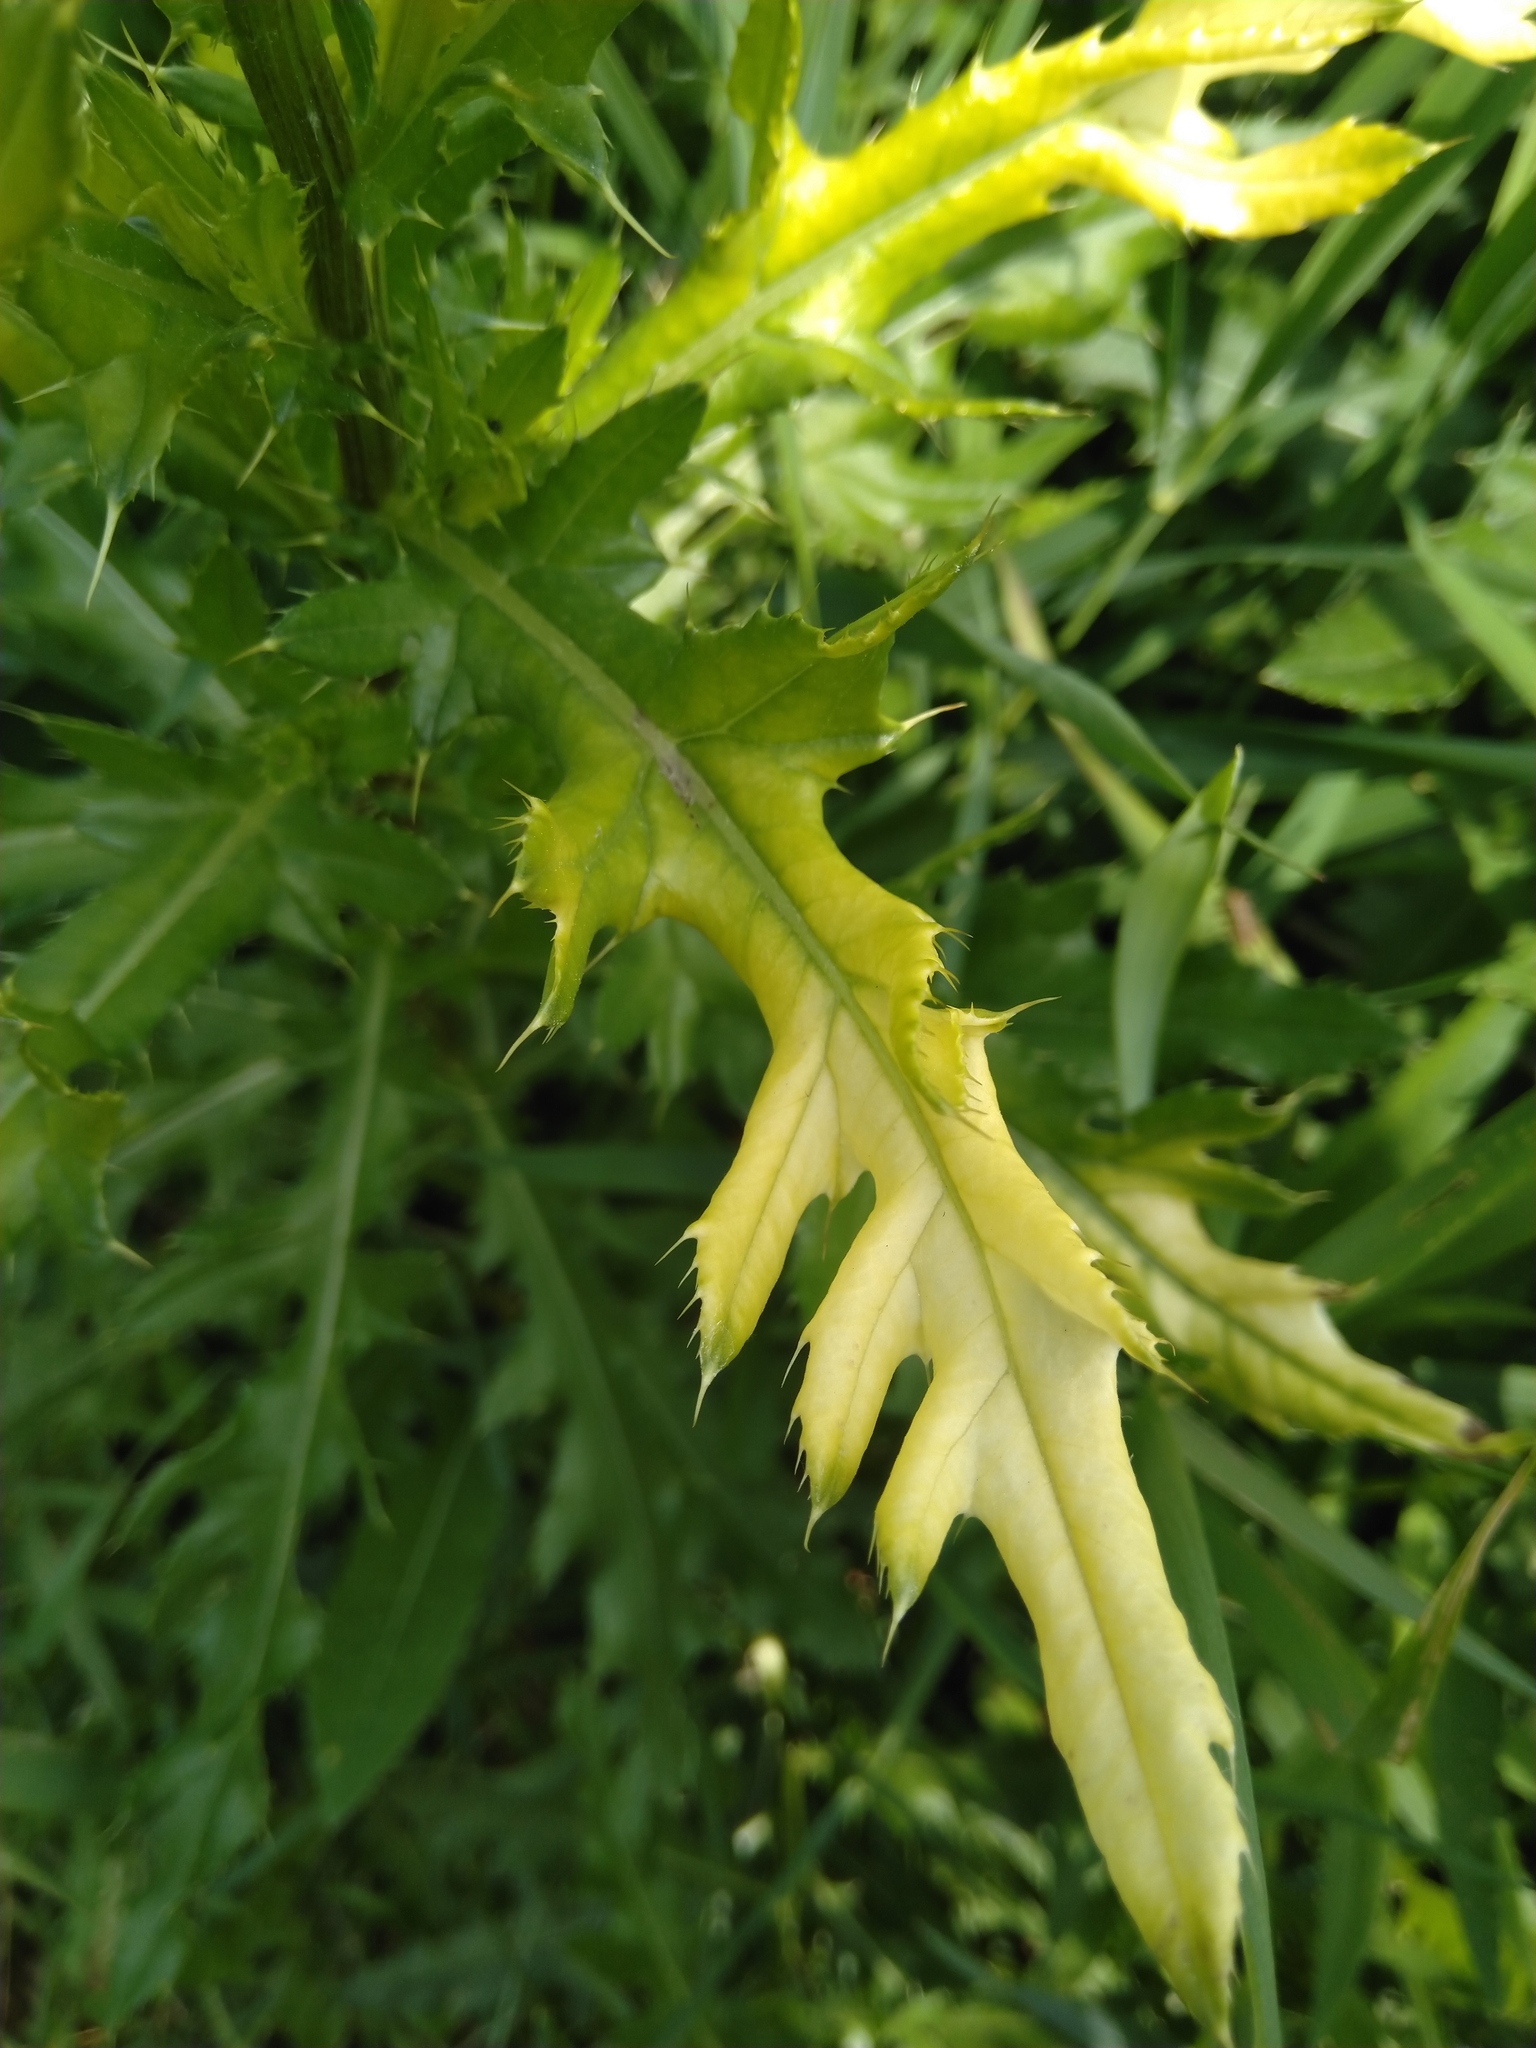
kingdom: Bacteria
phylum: Proteobacteria
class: Gammaproteobacteria
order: Pseudomonadales
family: Pseudomonadaceae
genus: Pseudomonas
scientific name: Pseudomonas syringae
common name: Bacterial speck
